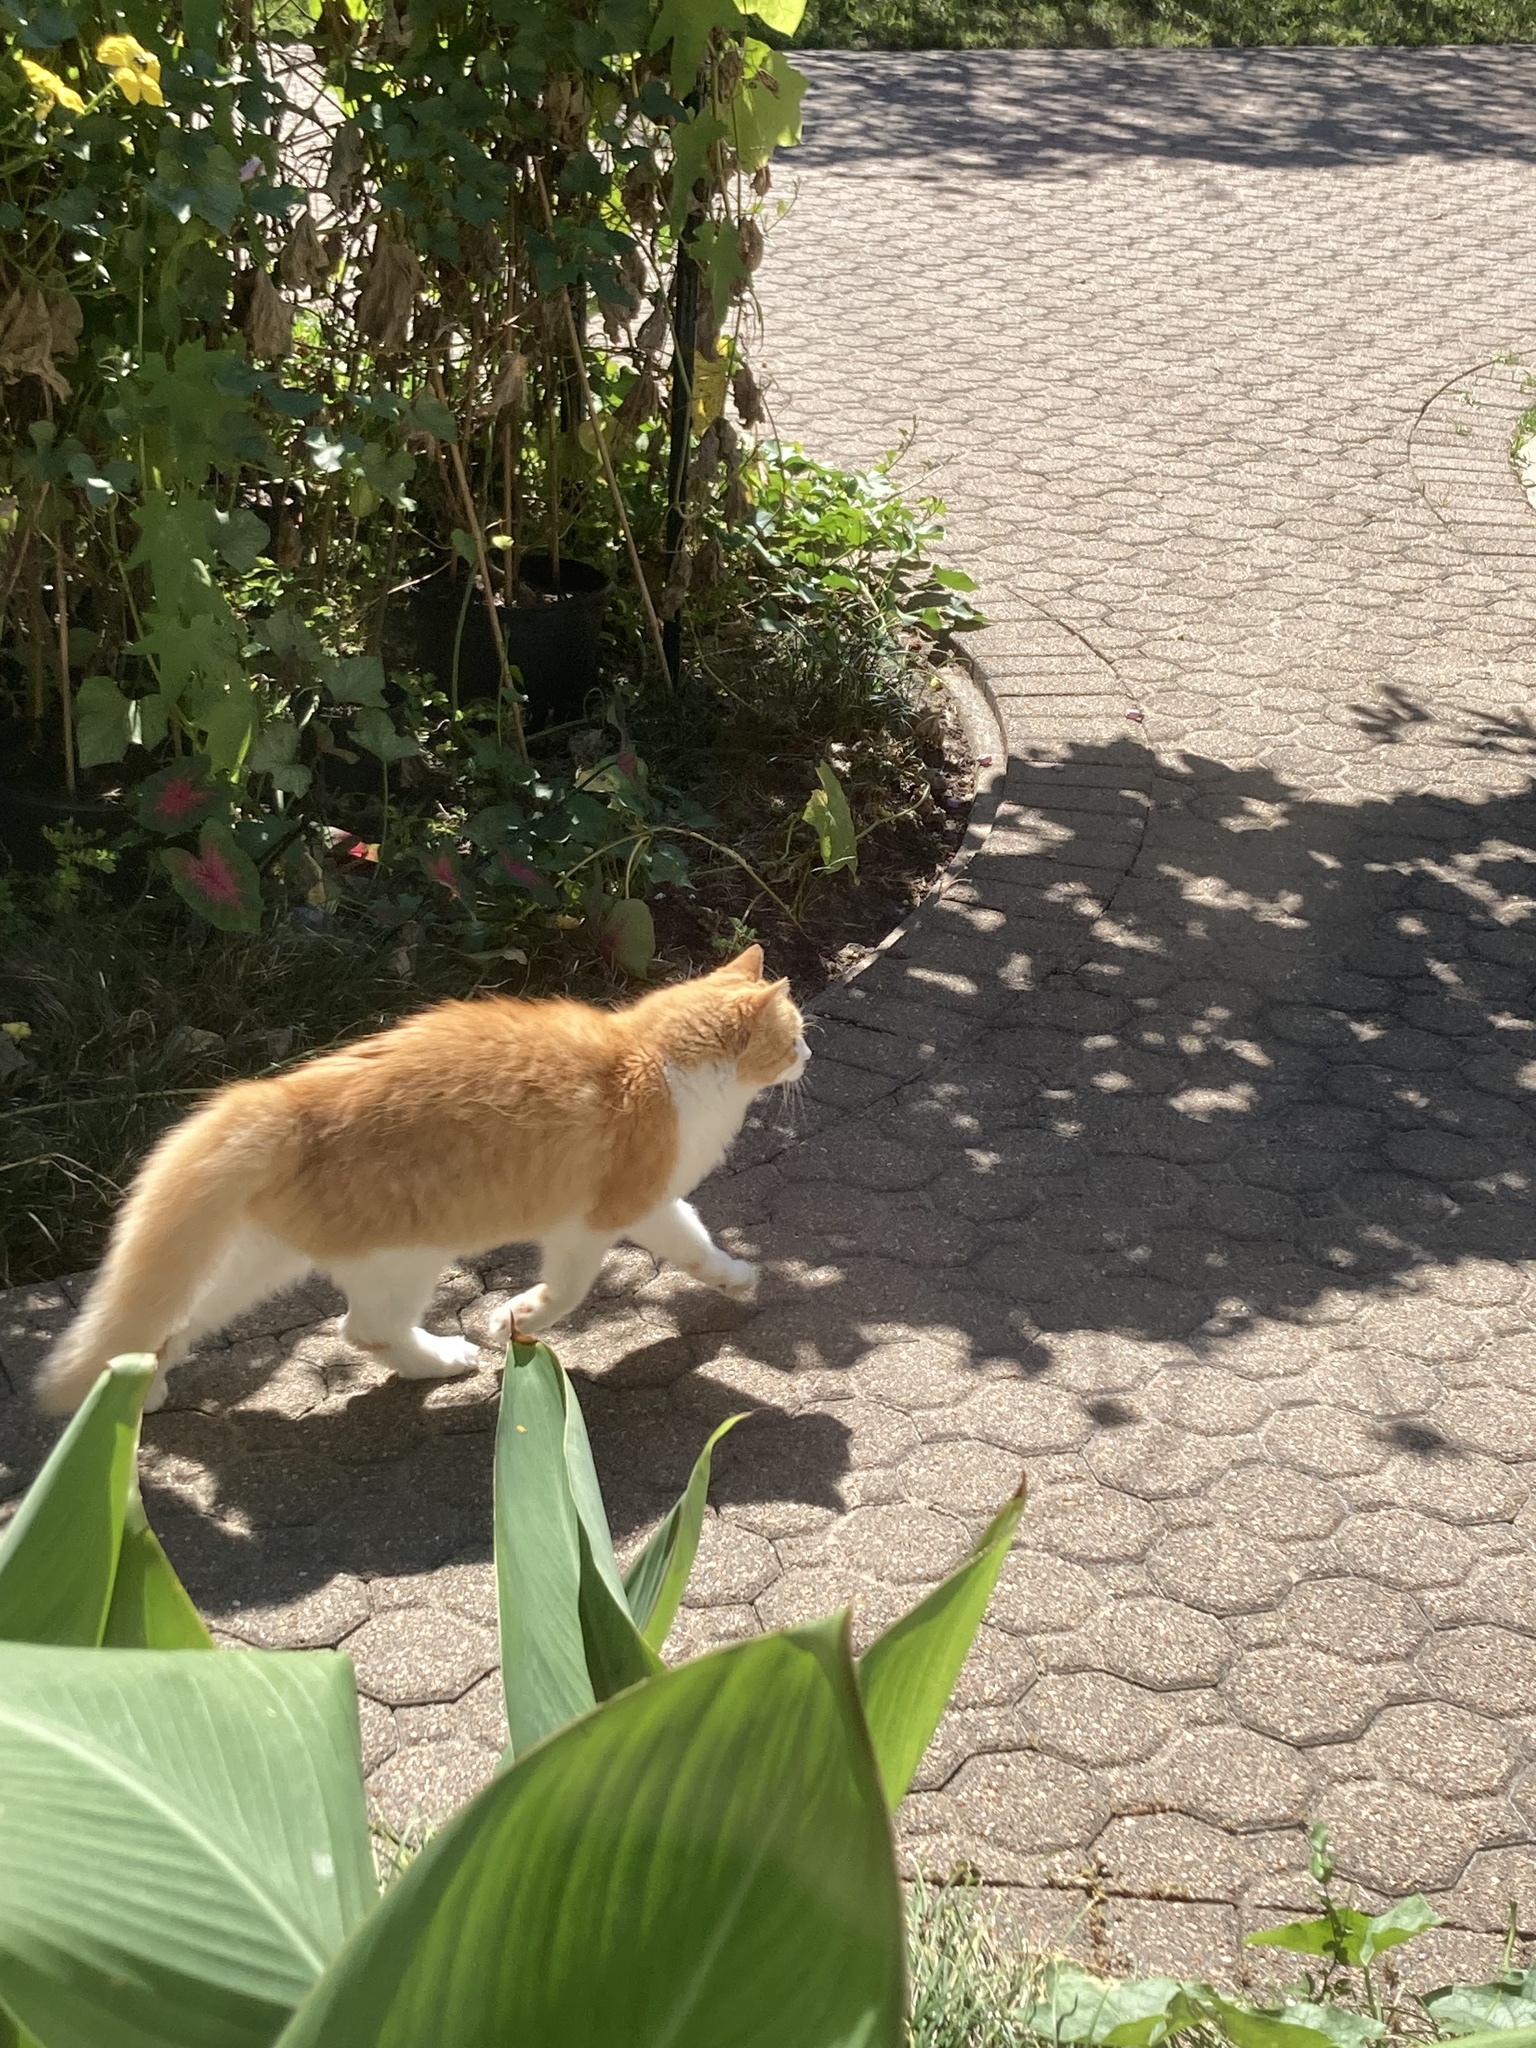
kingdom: Animalia
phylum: Chordata
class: Mammalia
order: Carnivora
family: Felidae
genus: Felis
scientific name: Felis catus
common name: Domestic cat
